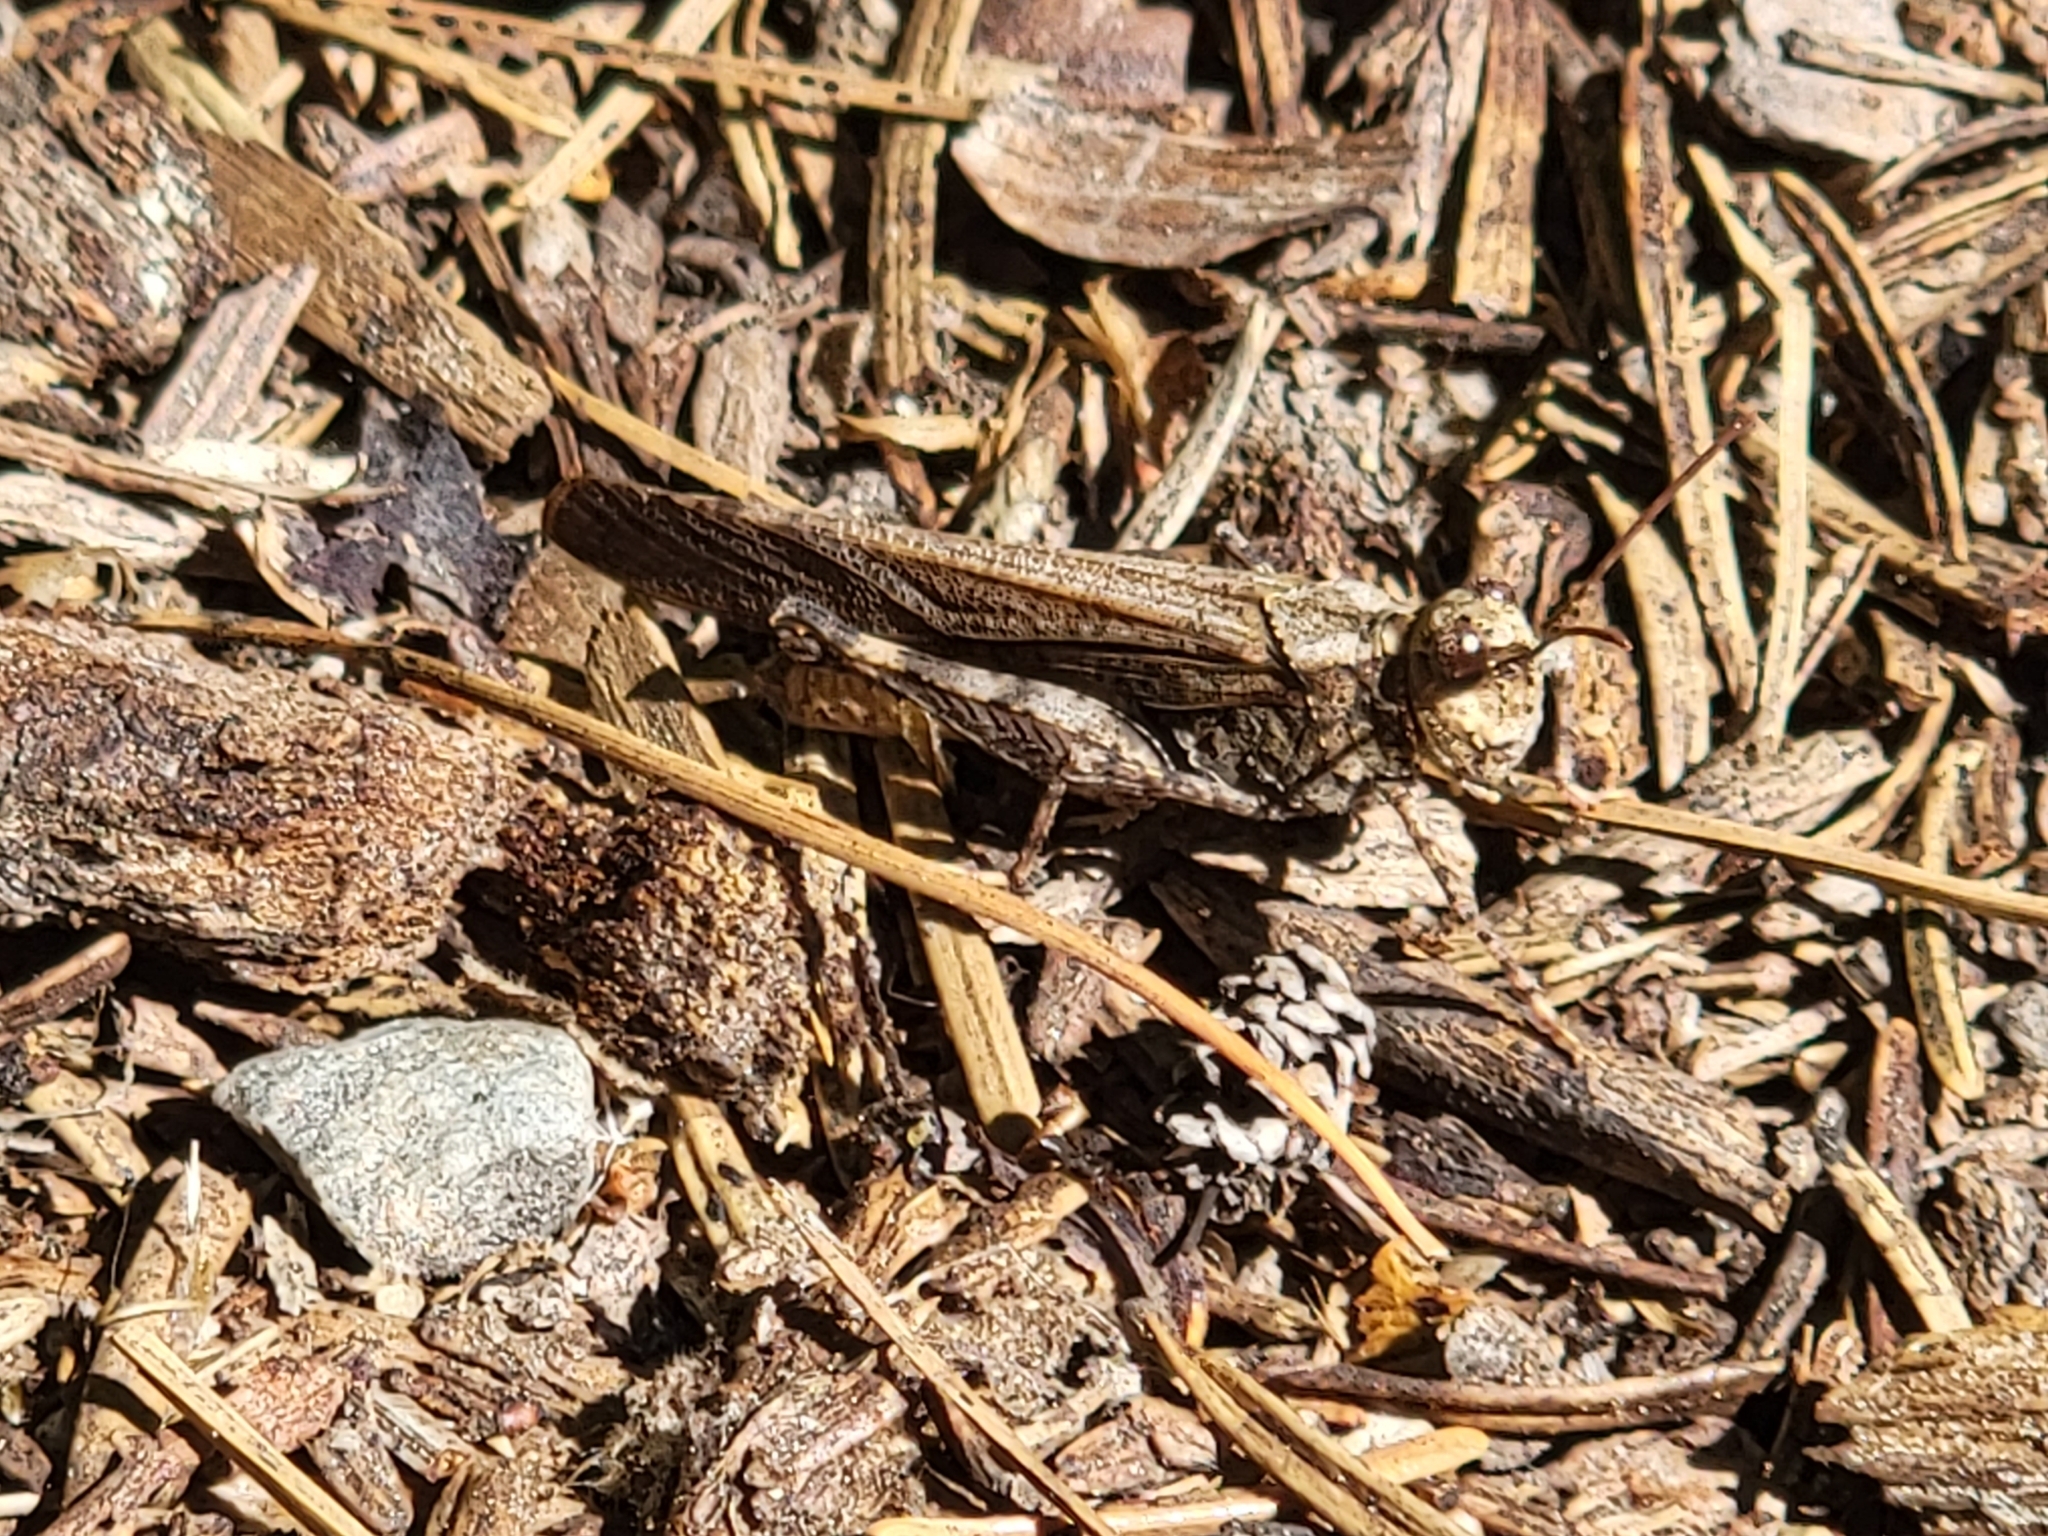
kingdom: Animalia
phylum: Arthropoda
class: Insecta
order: Orthoptera
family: Acrididae
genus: Trimerotropis
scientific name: Trimerotropis verruculata
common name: Crackling forest grasshopper
